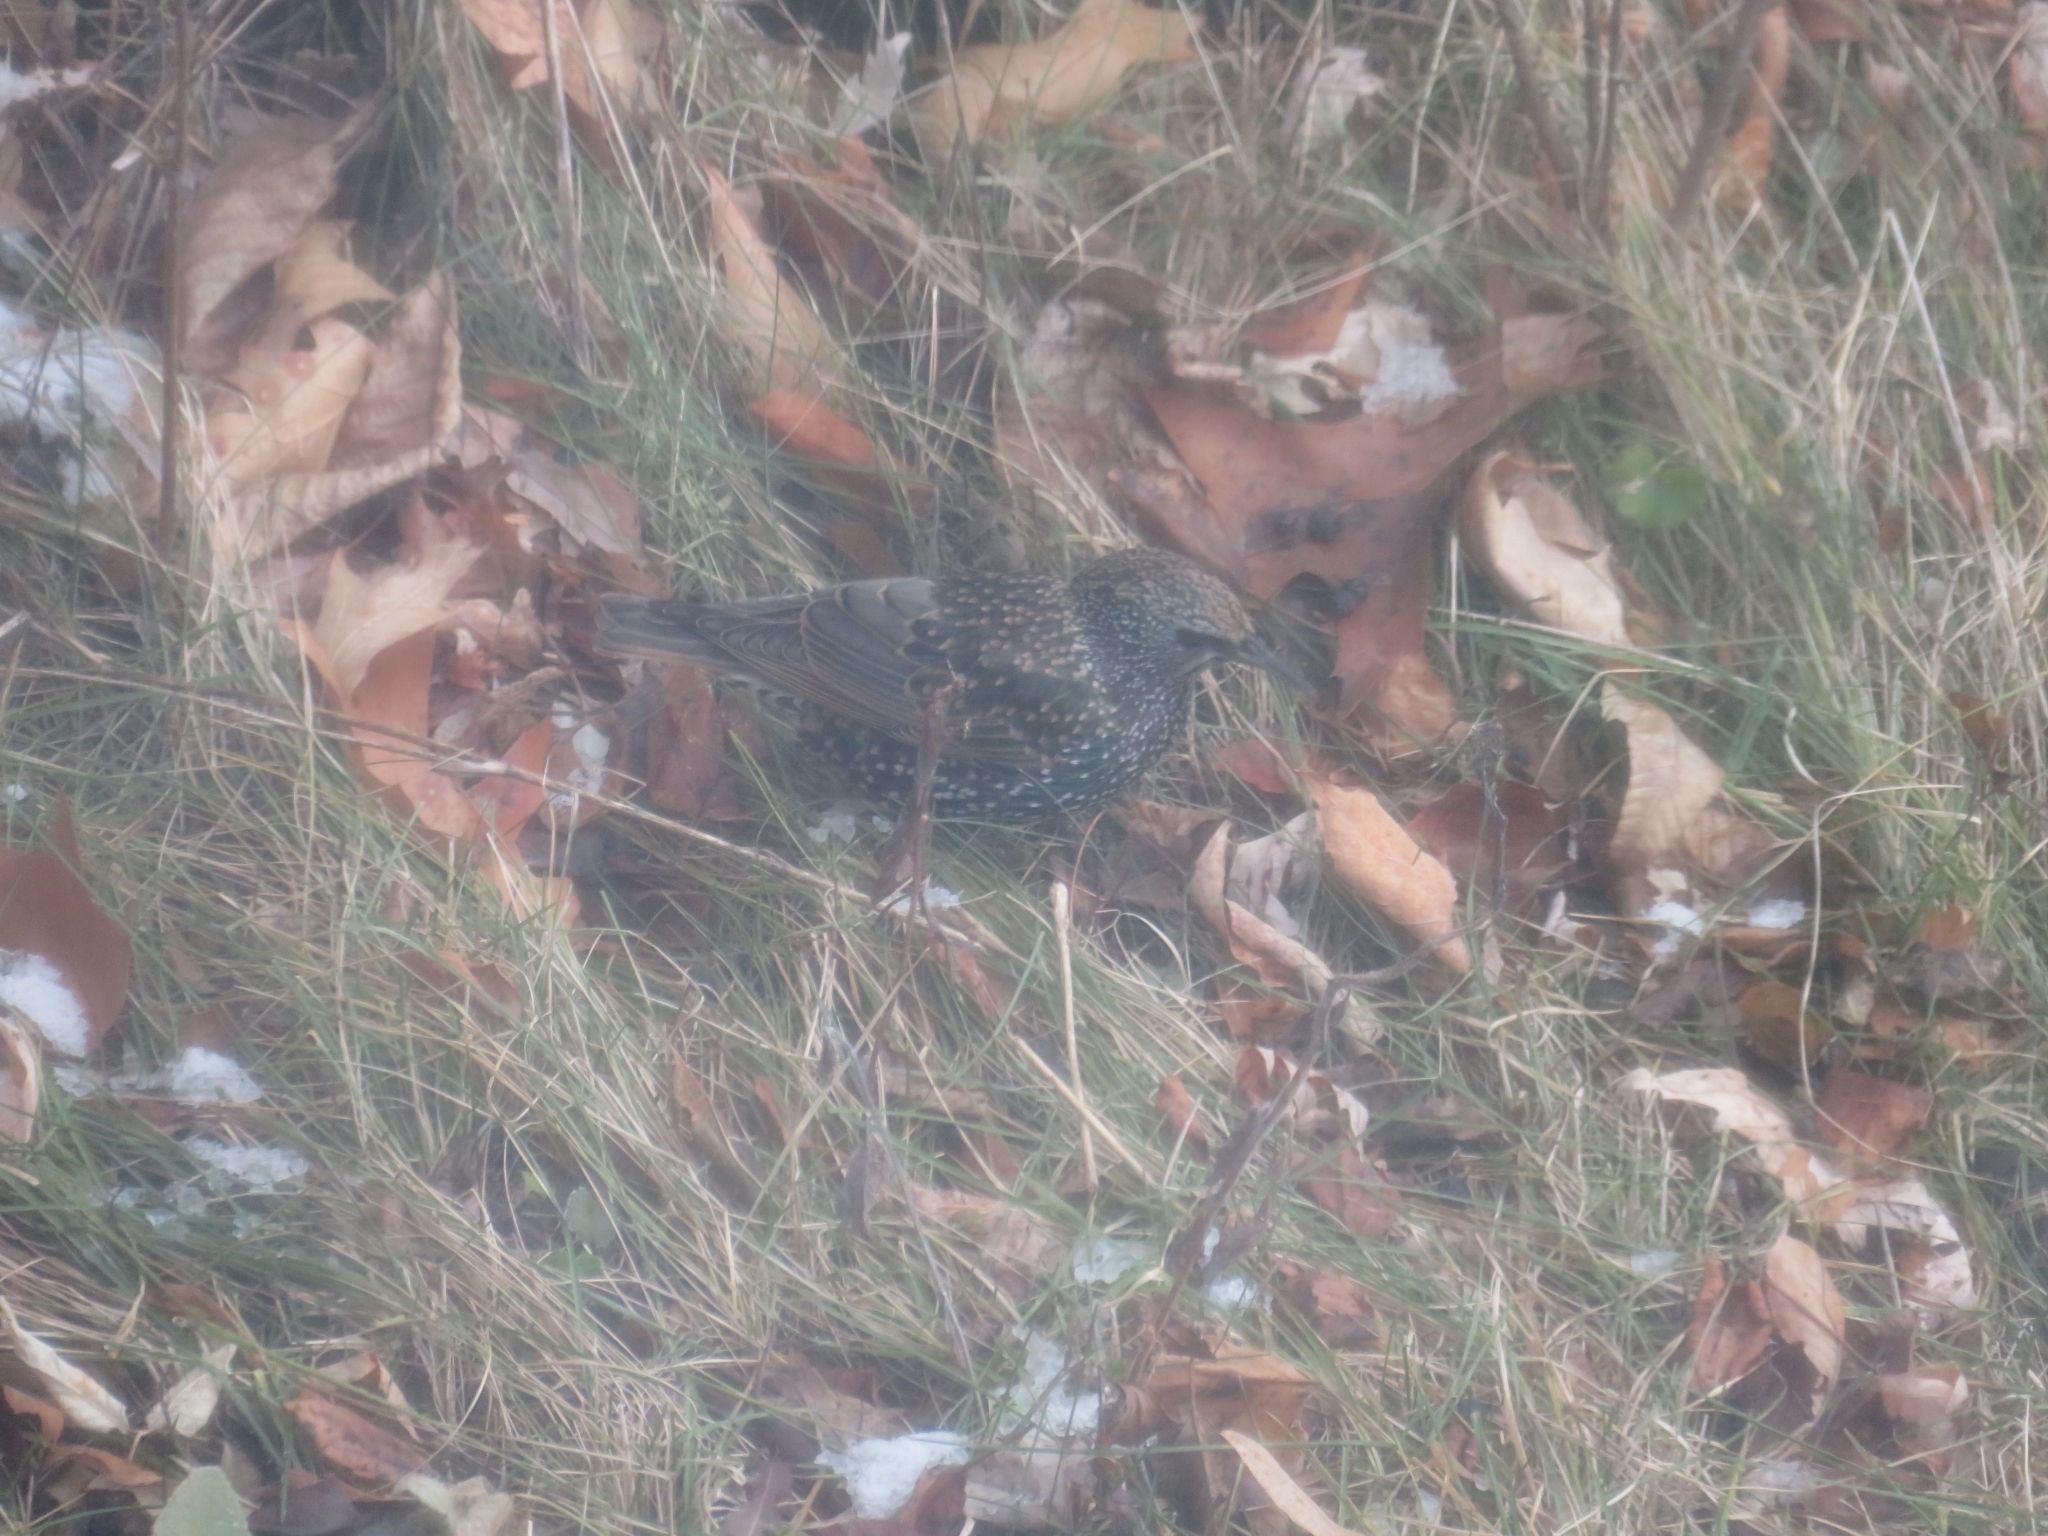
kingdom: Animalia
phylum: Chordata
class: Aves
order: Passeriformes
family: Sturnidae
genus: Sturnus
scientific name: Sturnus vulgaris
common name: Common starling
